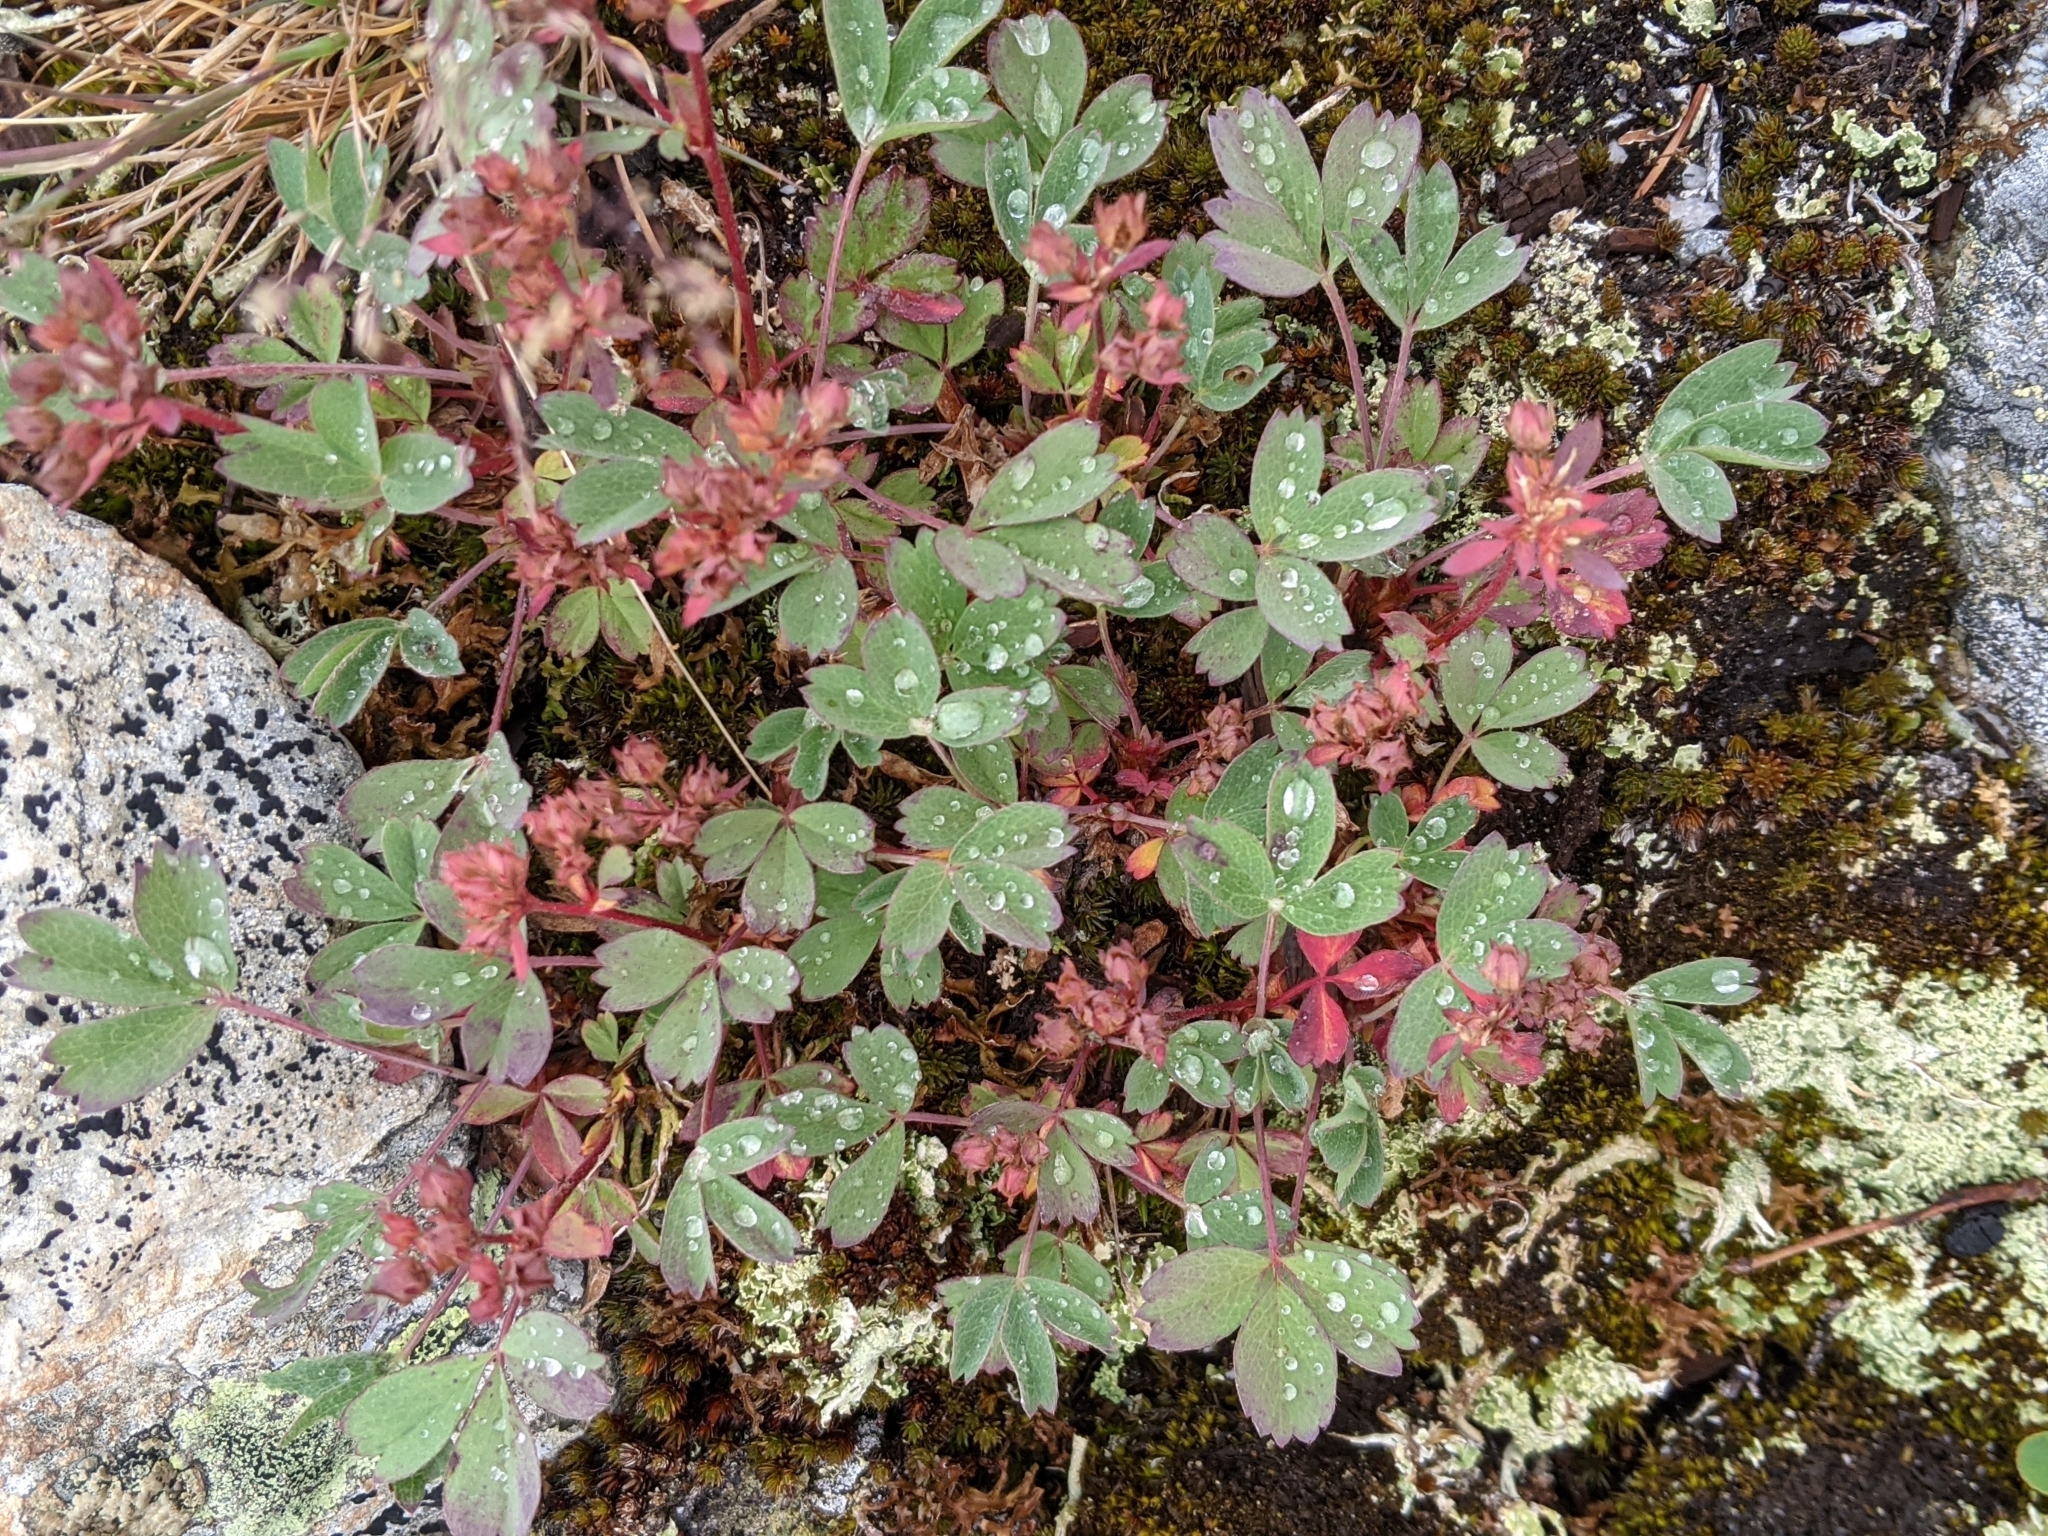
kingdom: Plantae
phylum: Tracheophyta
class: Magnoliopsida
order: Rosales
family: Rosaceae
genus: Sibbaldia
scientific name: Sibbaldia procumbens
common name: Creeping sibbaldia
